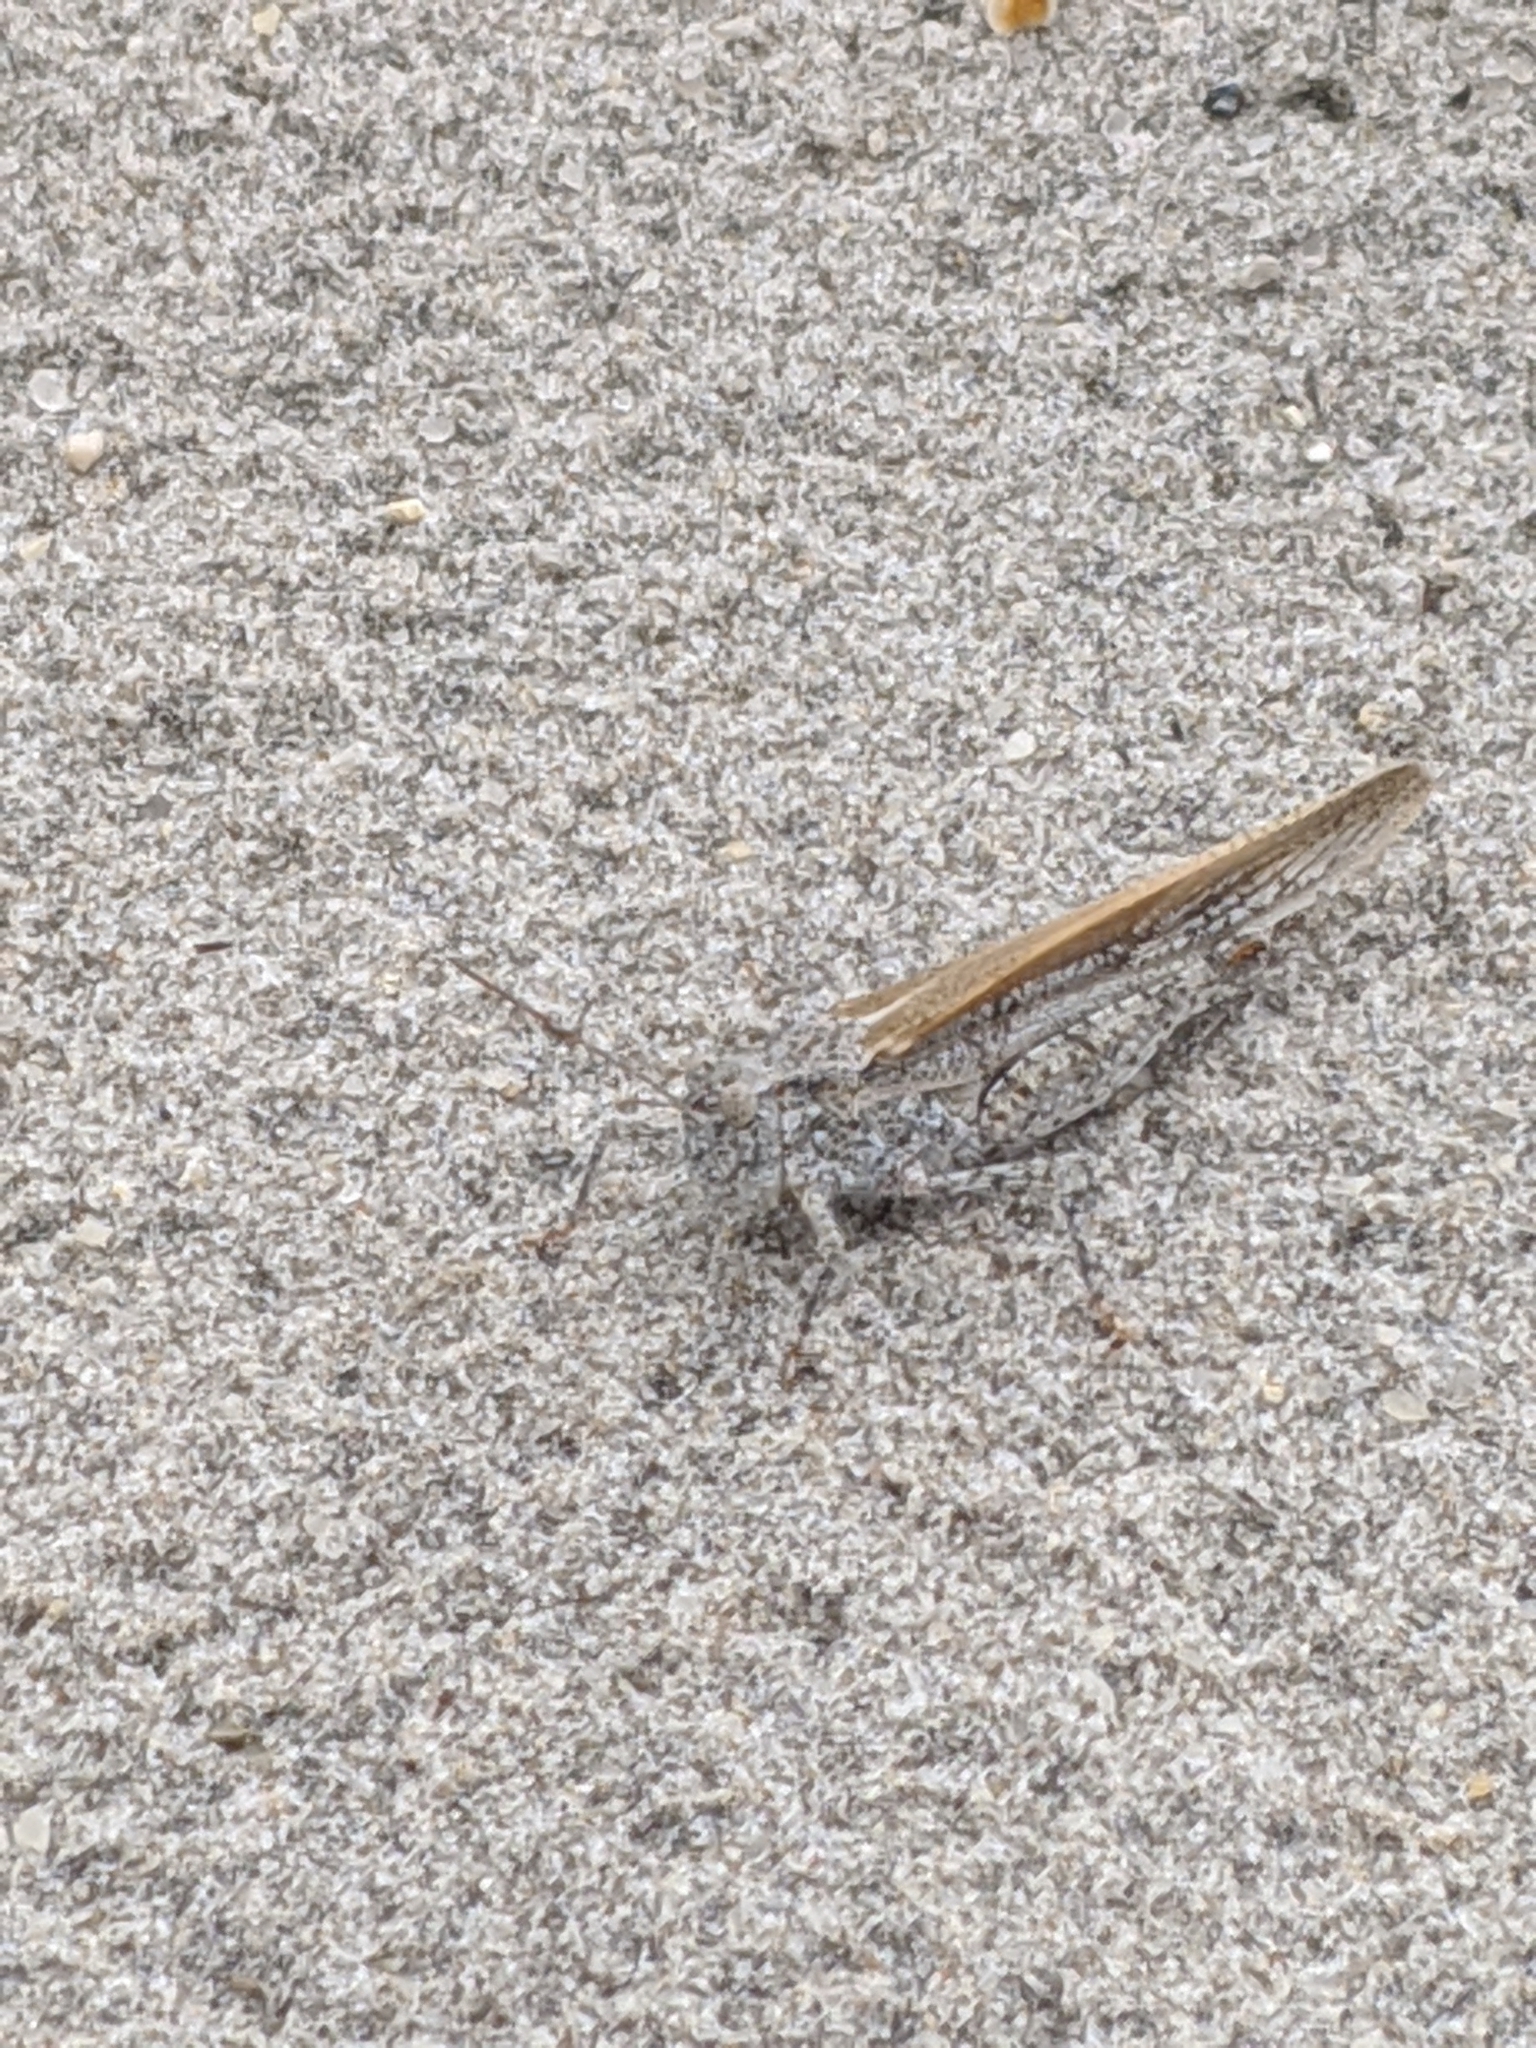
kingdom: Animalia
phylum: Arthropoda
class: Insecta
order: Orthoptera
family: Acrididae
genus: Trimerotropis
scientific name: Trimerotropis maritima
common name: Seaside locust
